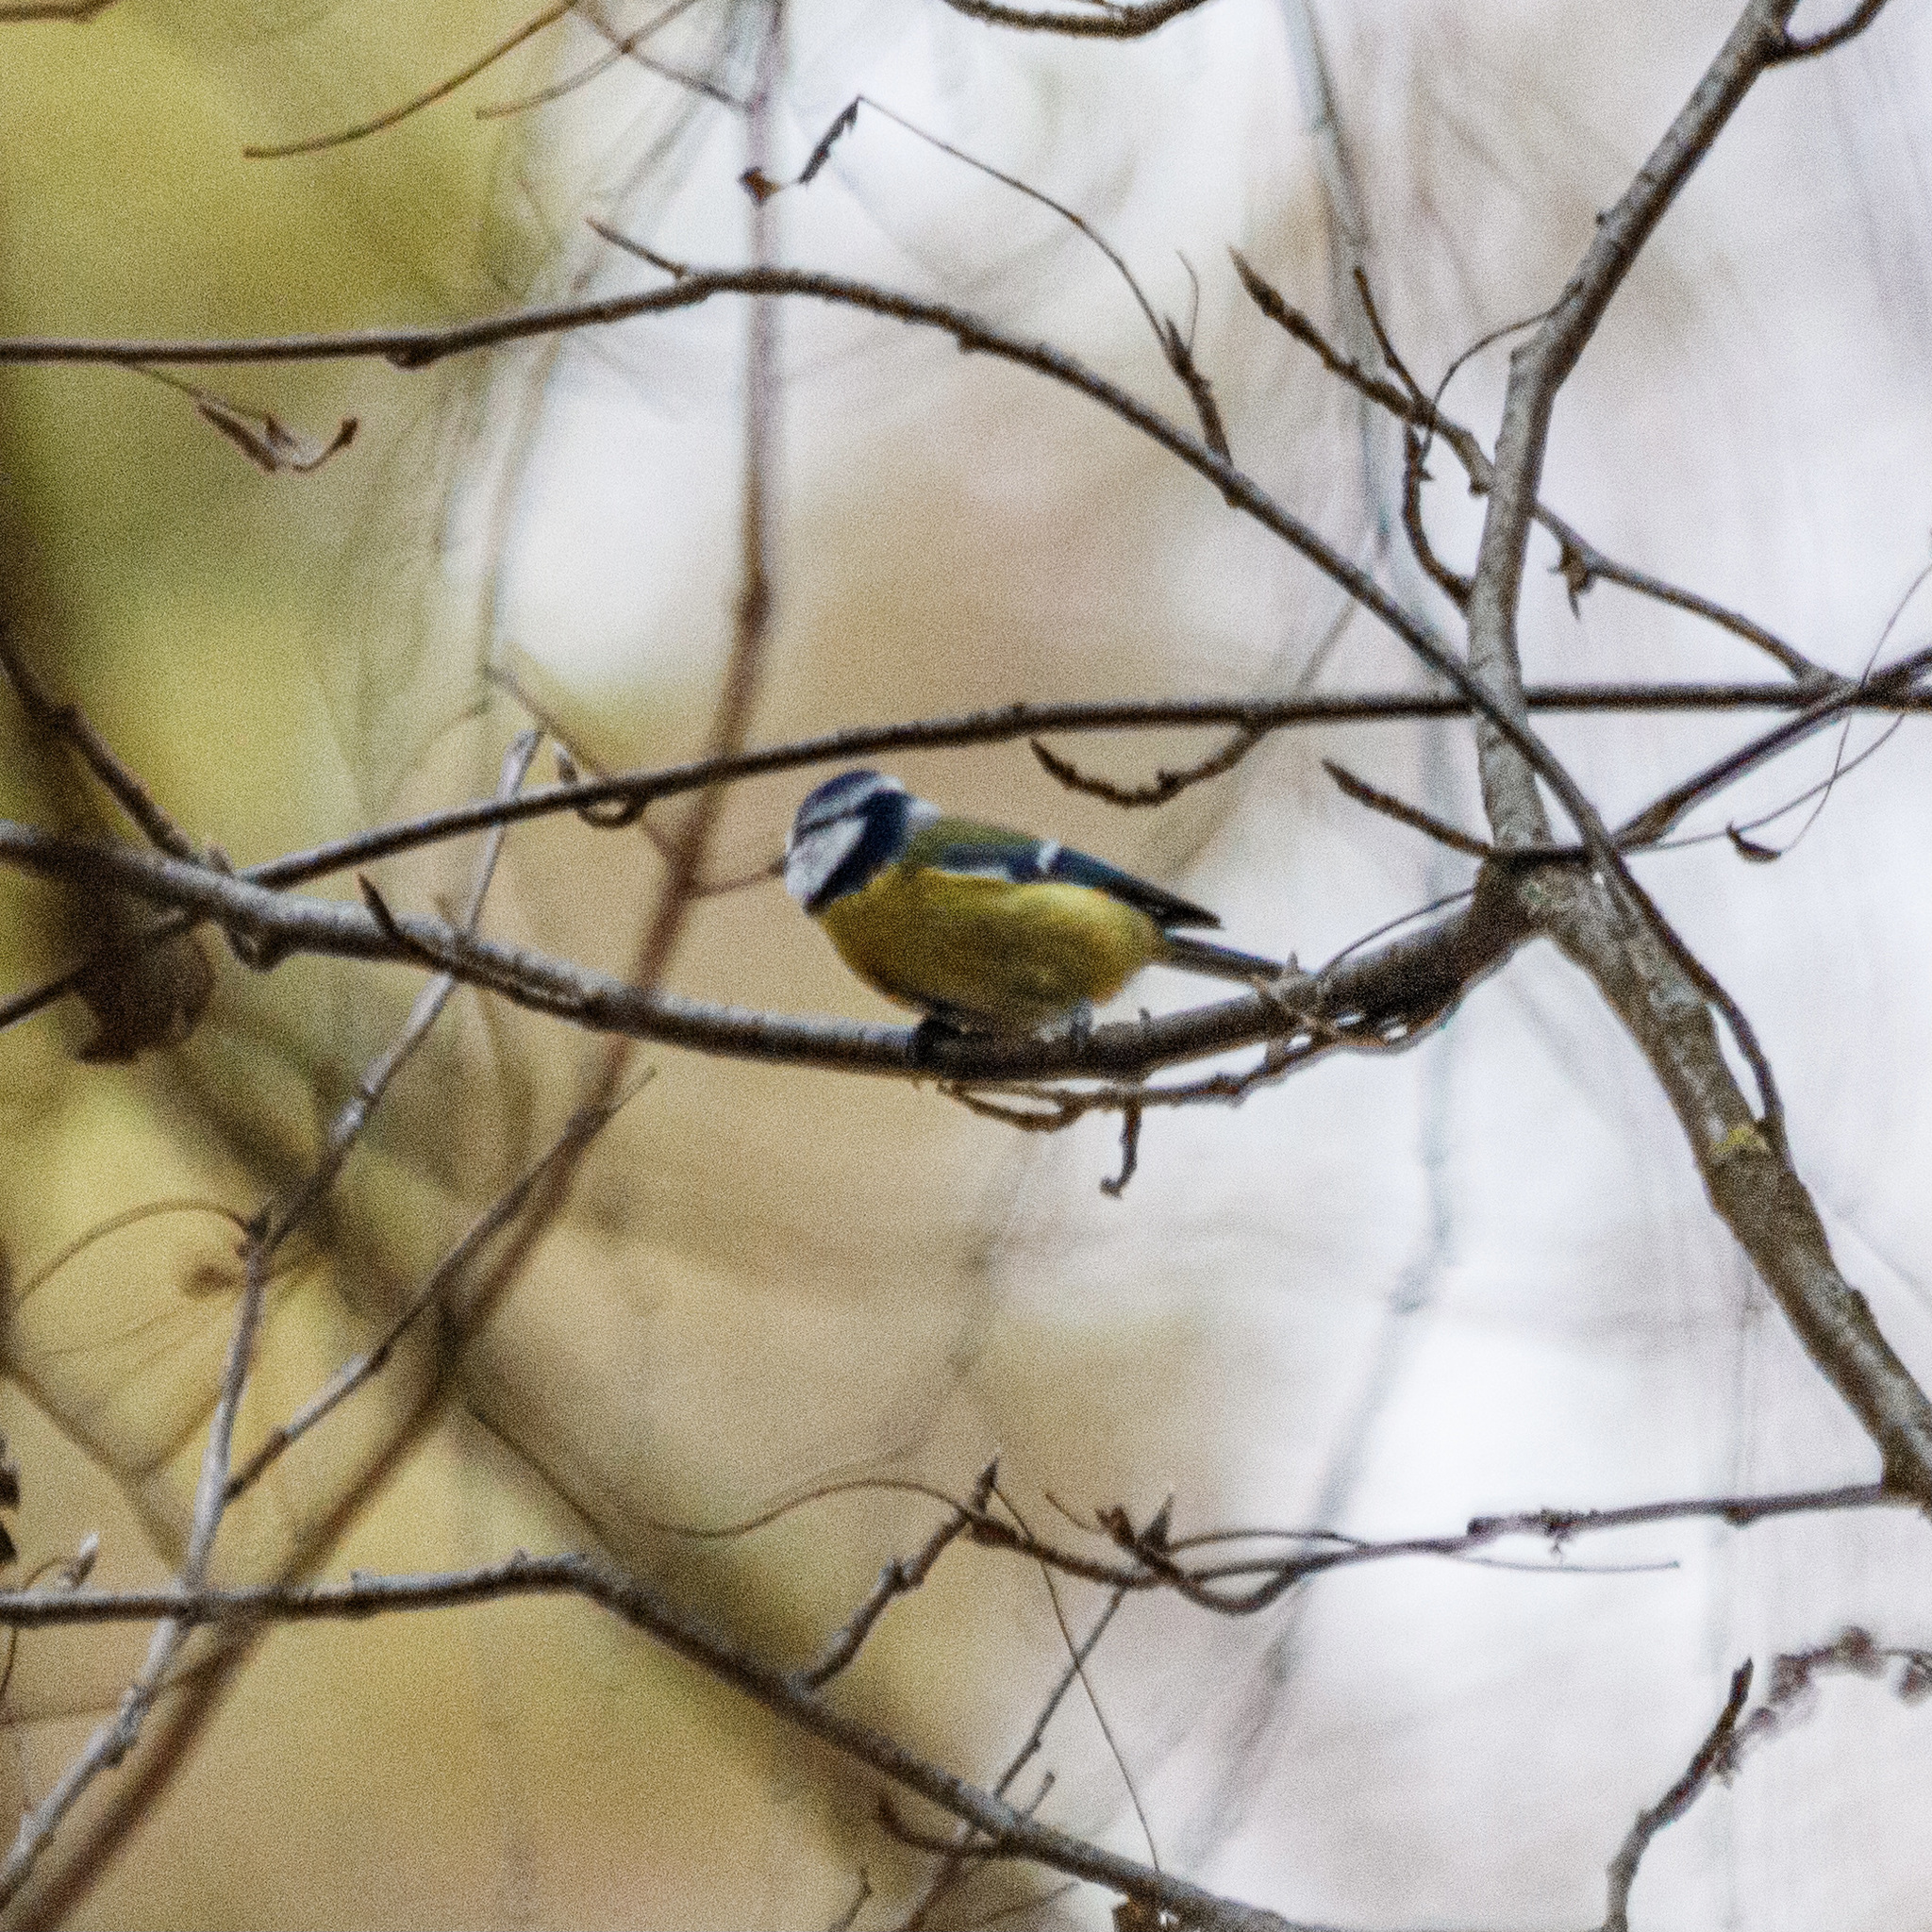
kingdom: Animalia
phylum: Chordata
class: Aves
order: Passeriformes
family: Paridae
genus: Cyanistes
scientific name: Cyanistes caeruleus
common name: Eurasian blue tit
